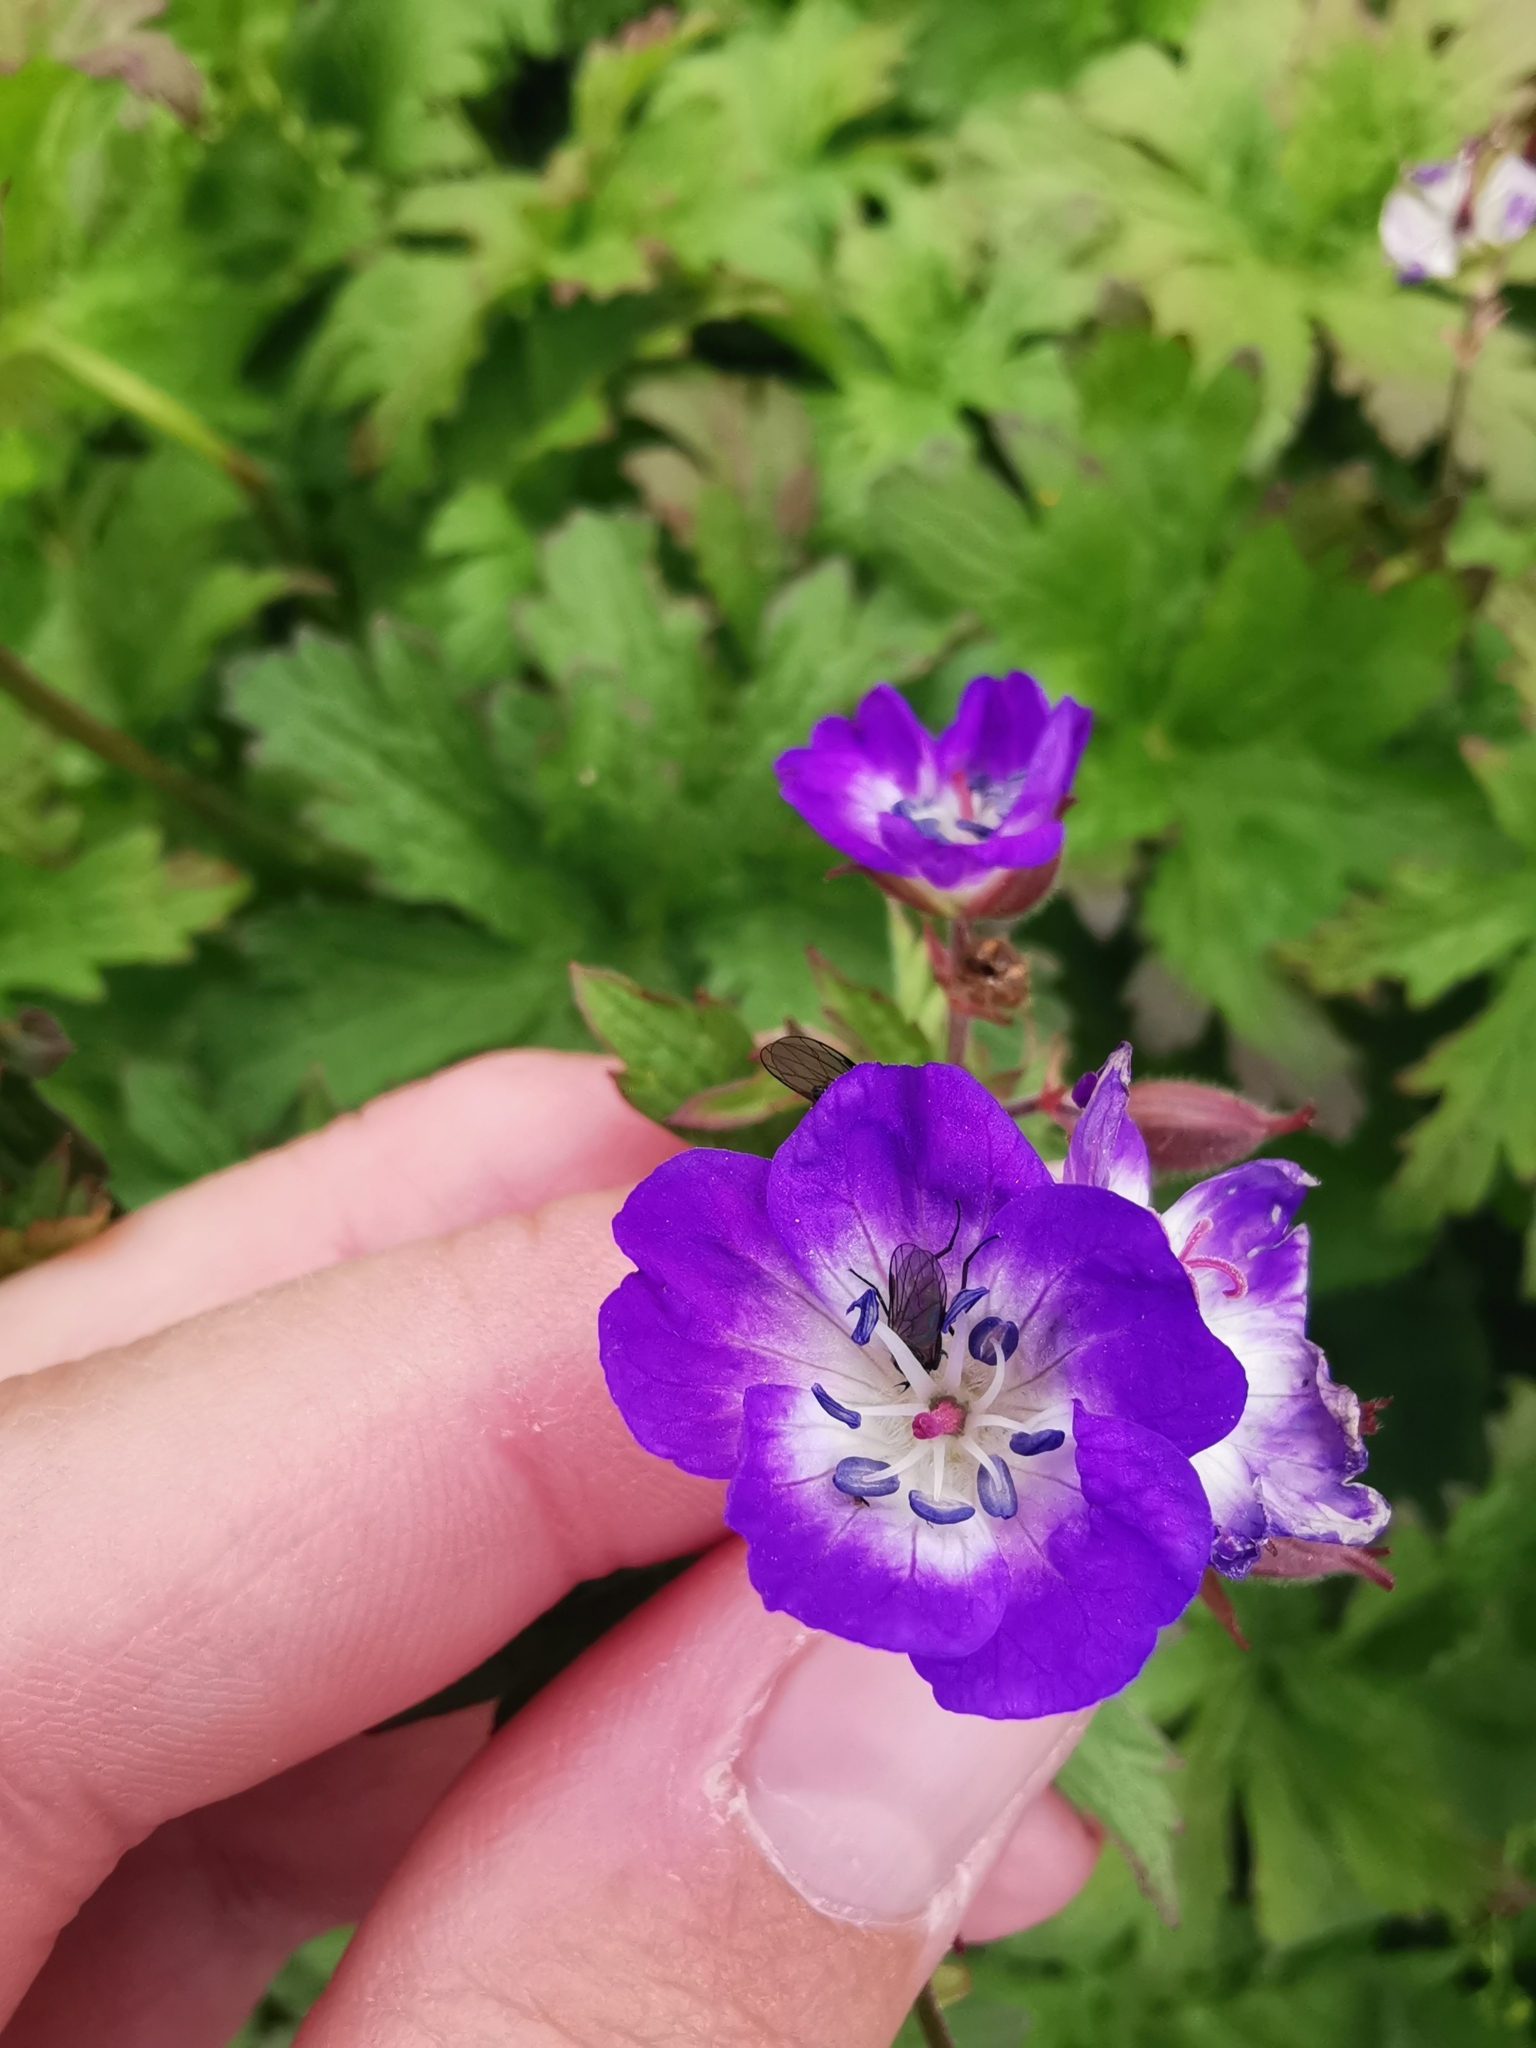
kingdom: Plantae
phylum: Tracheophyta
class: Magnoliopsida
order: Geraniales
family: Geraniaceae
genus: Geranium
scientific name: Geranium sylvaticum
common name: Wood crane's-bill
